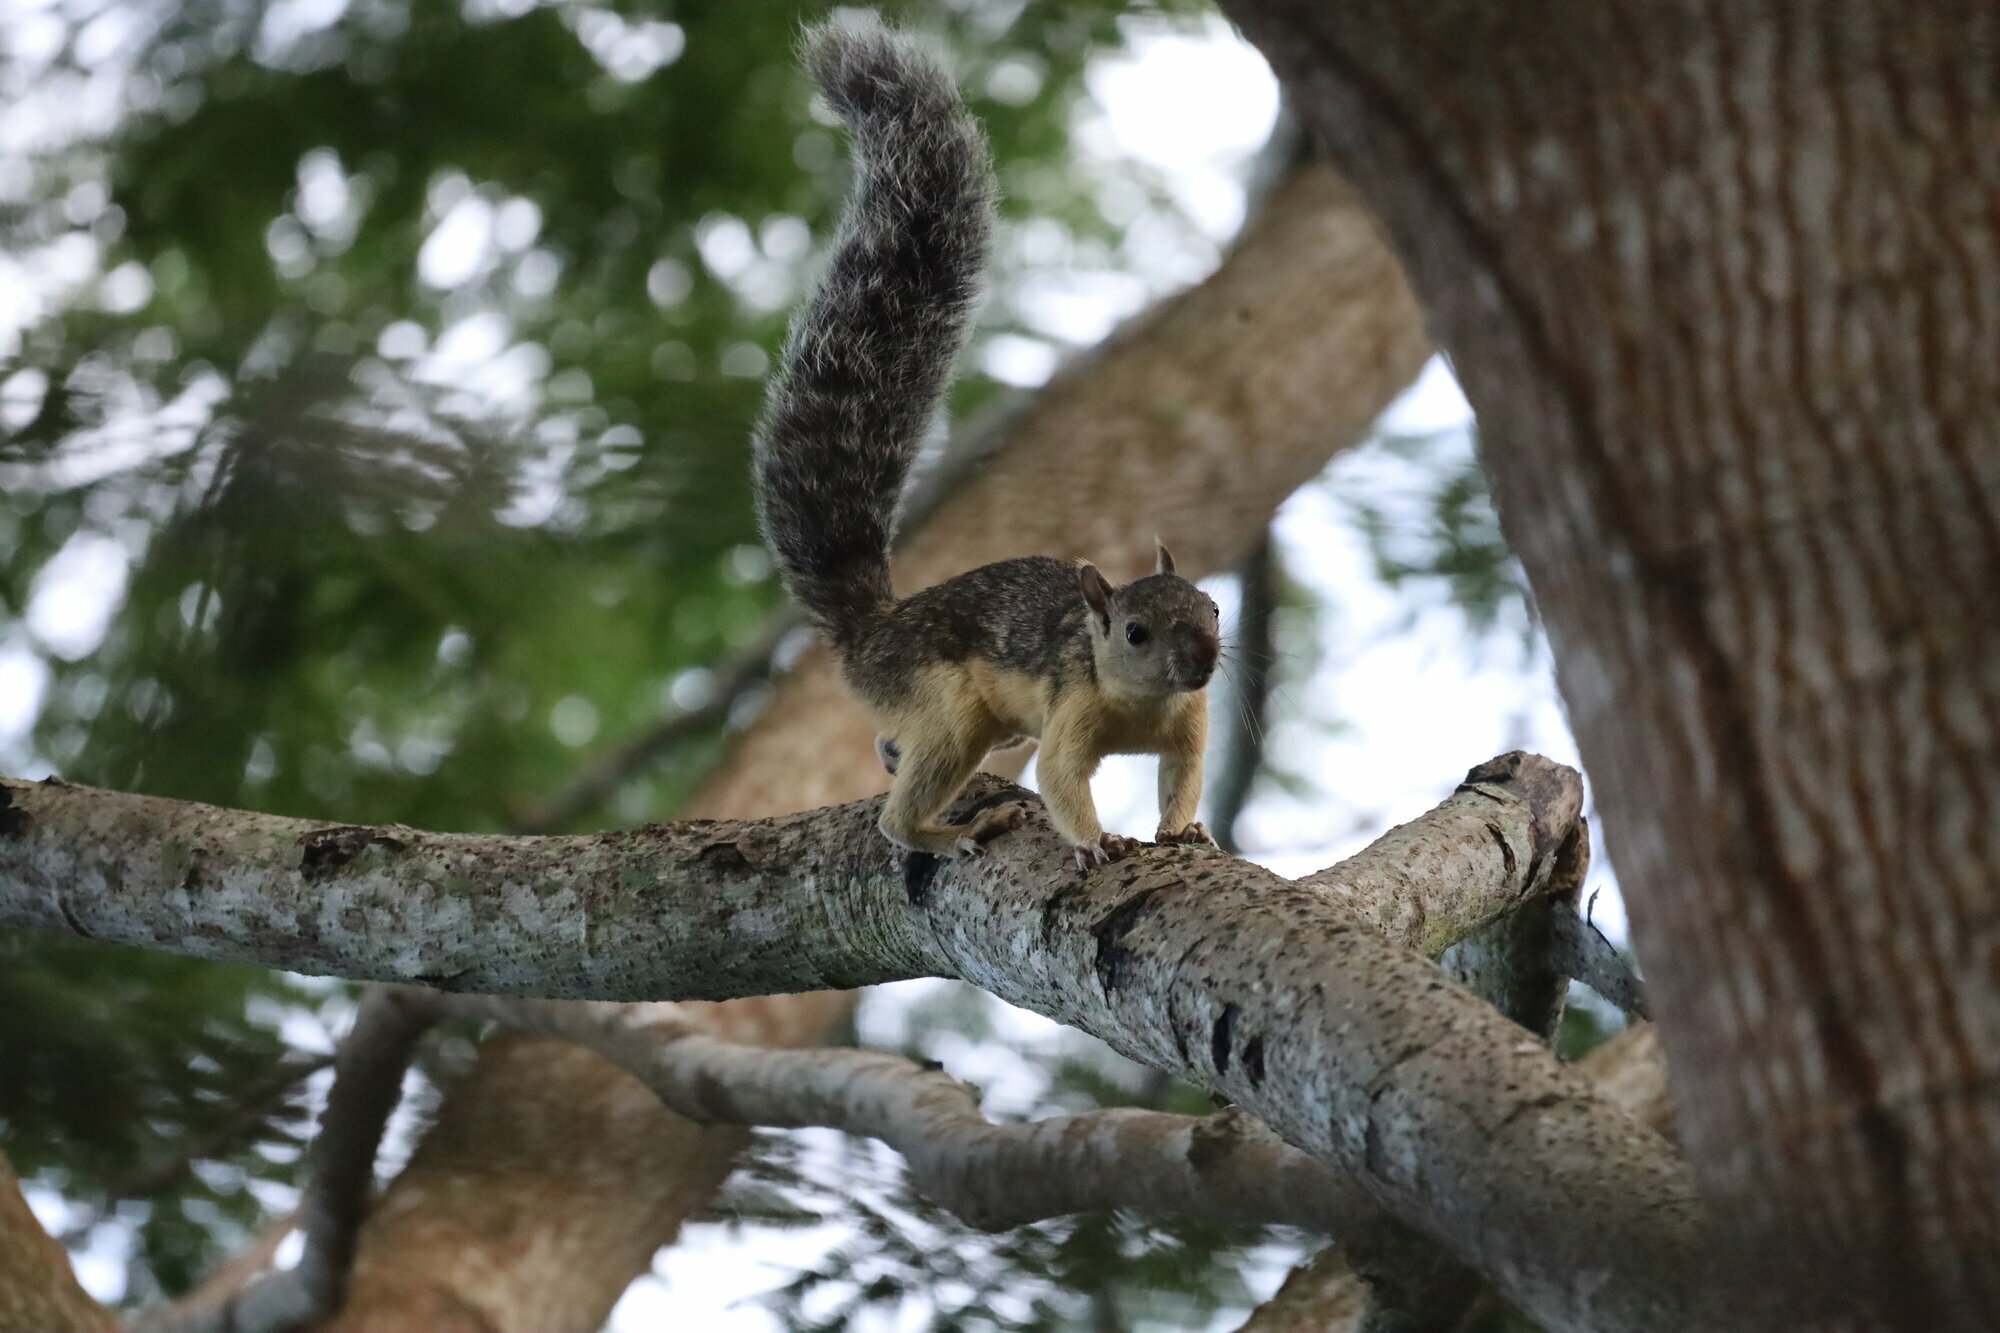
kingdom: Animalia
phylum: Chordata
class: Mammalia
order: Rodentia
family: Sciuridae
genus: Sciurus
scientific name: Sciurus variegatoides
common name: Variegated squirrel
